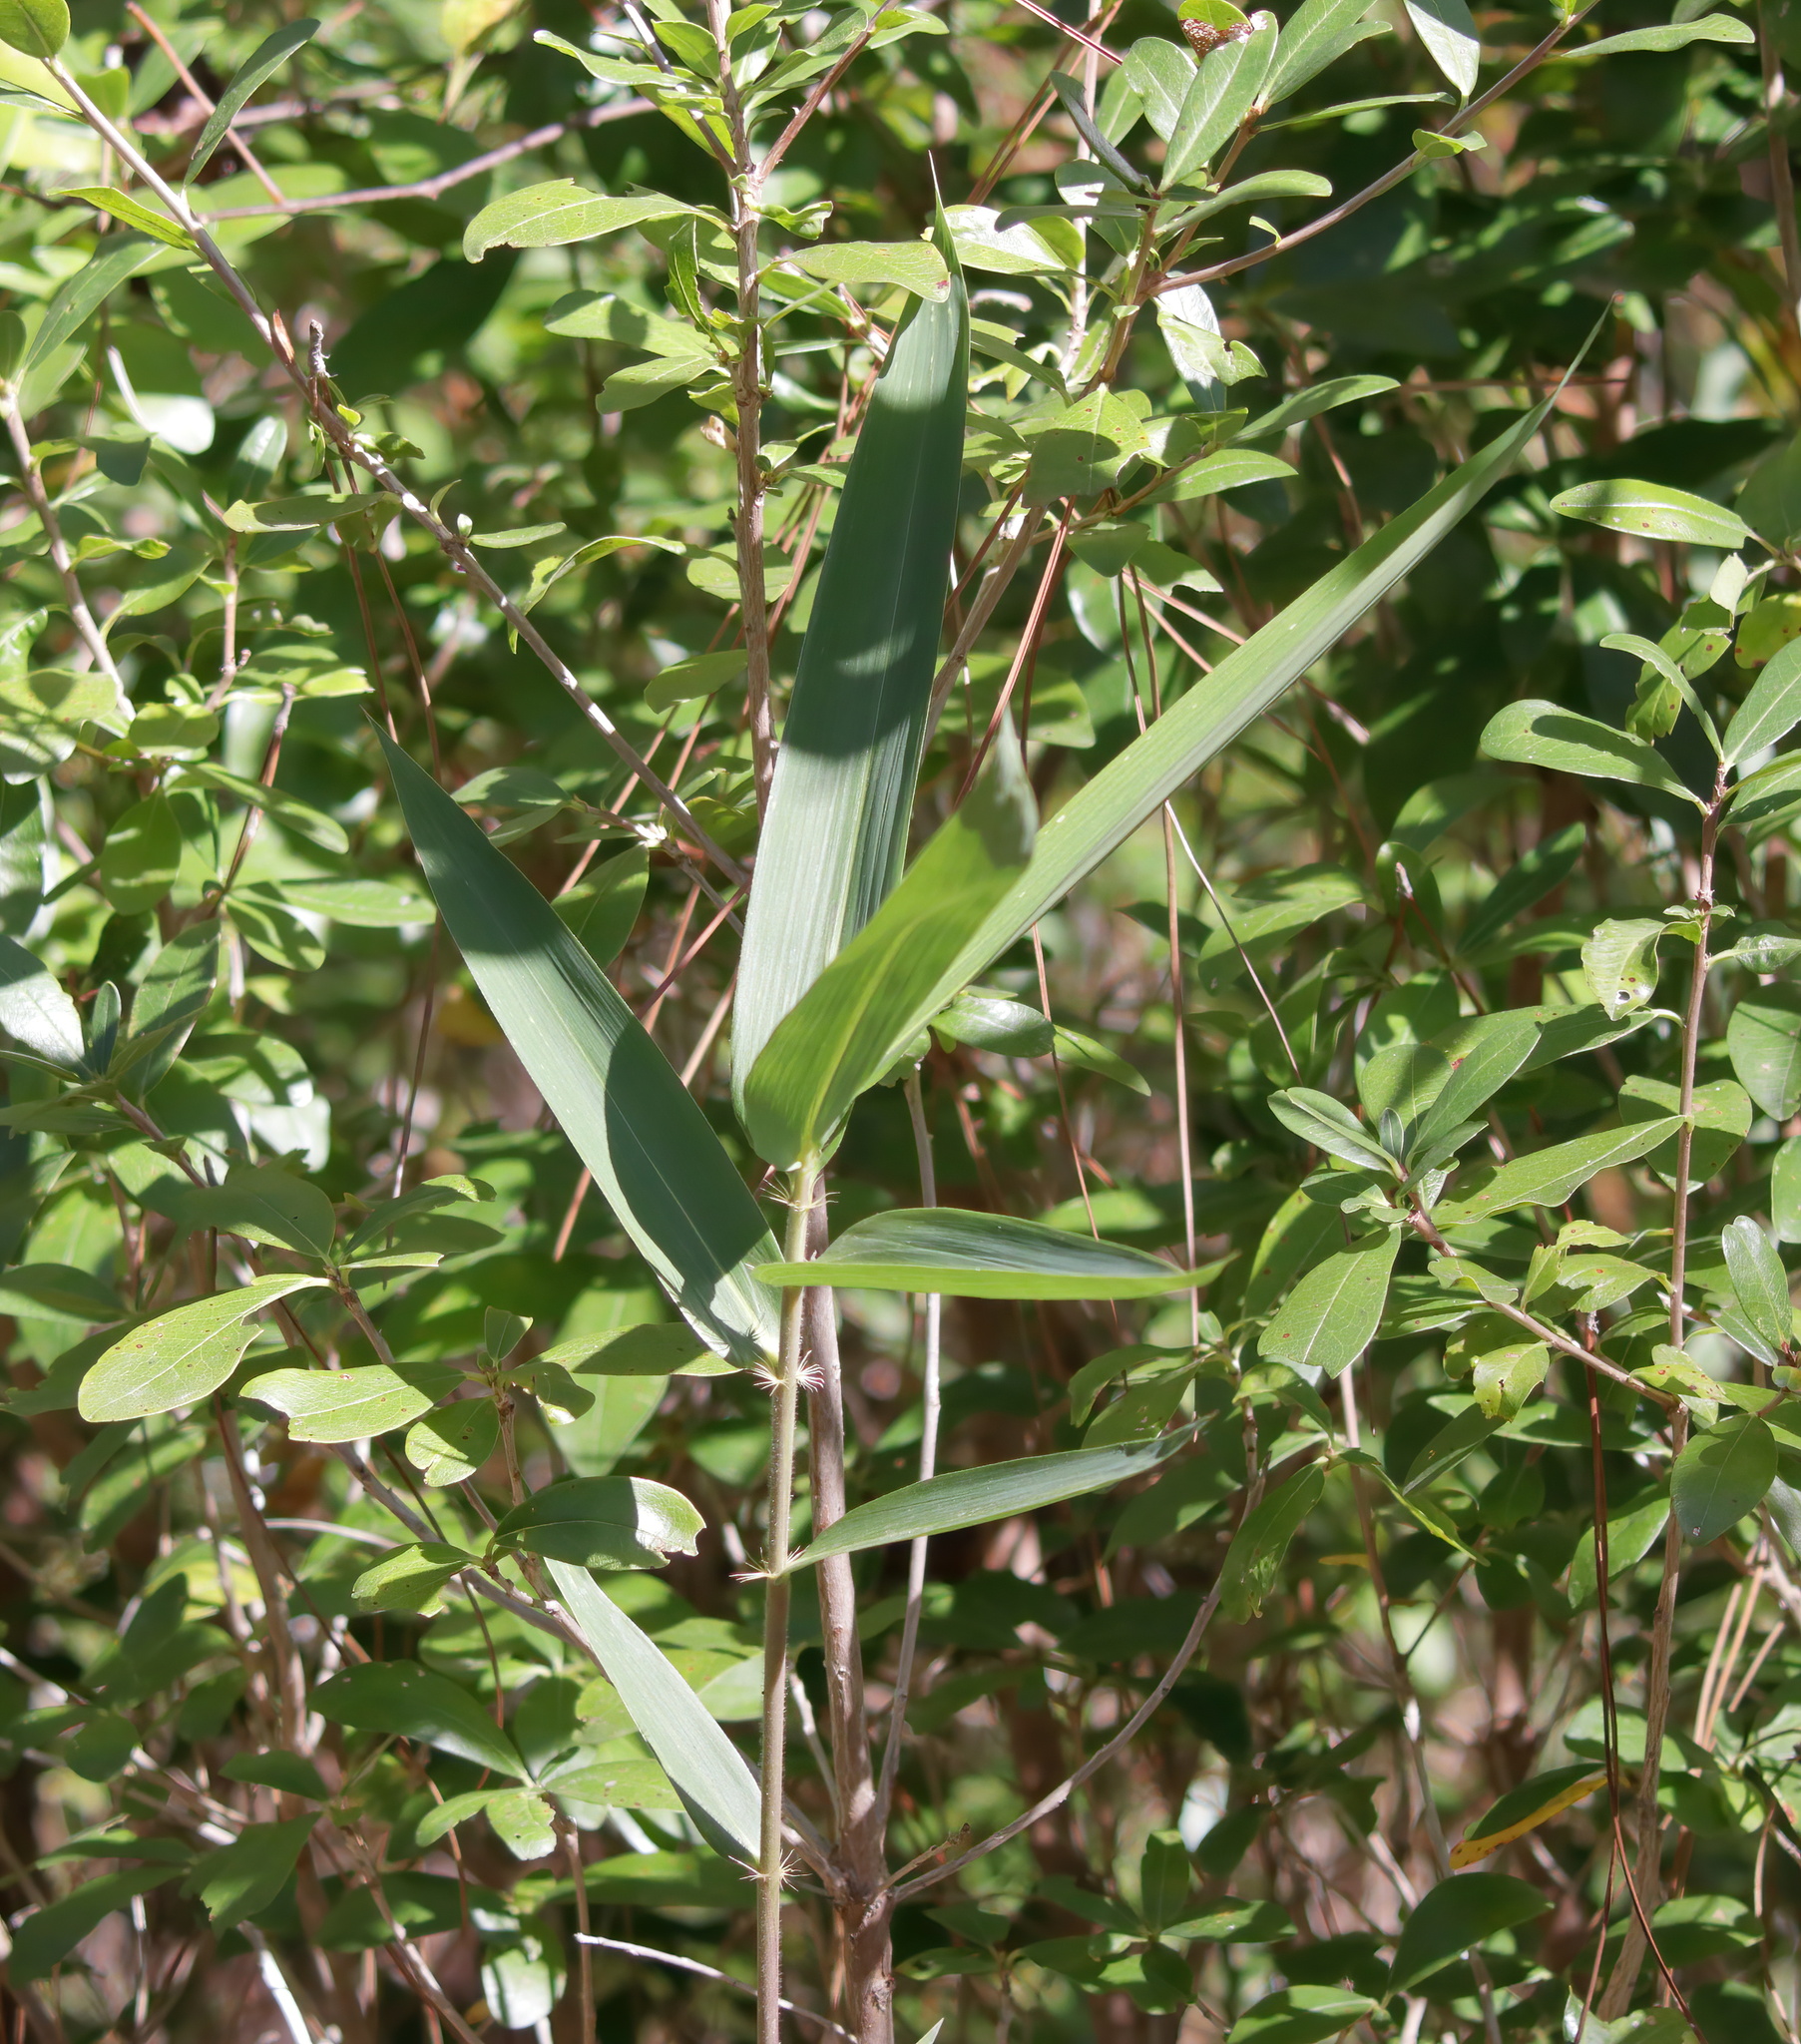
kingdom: Plantae
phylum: Tracheophyta
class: Liliopsida
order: Poales
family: Poaceae
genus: Arundinaria
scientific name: Arundinaria tecta
